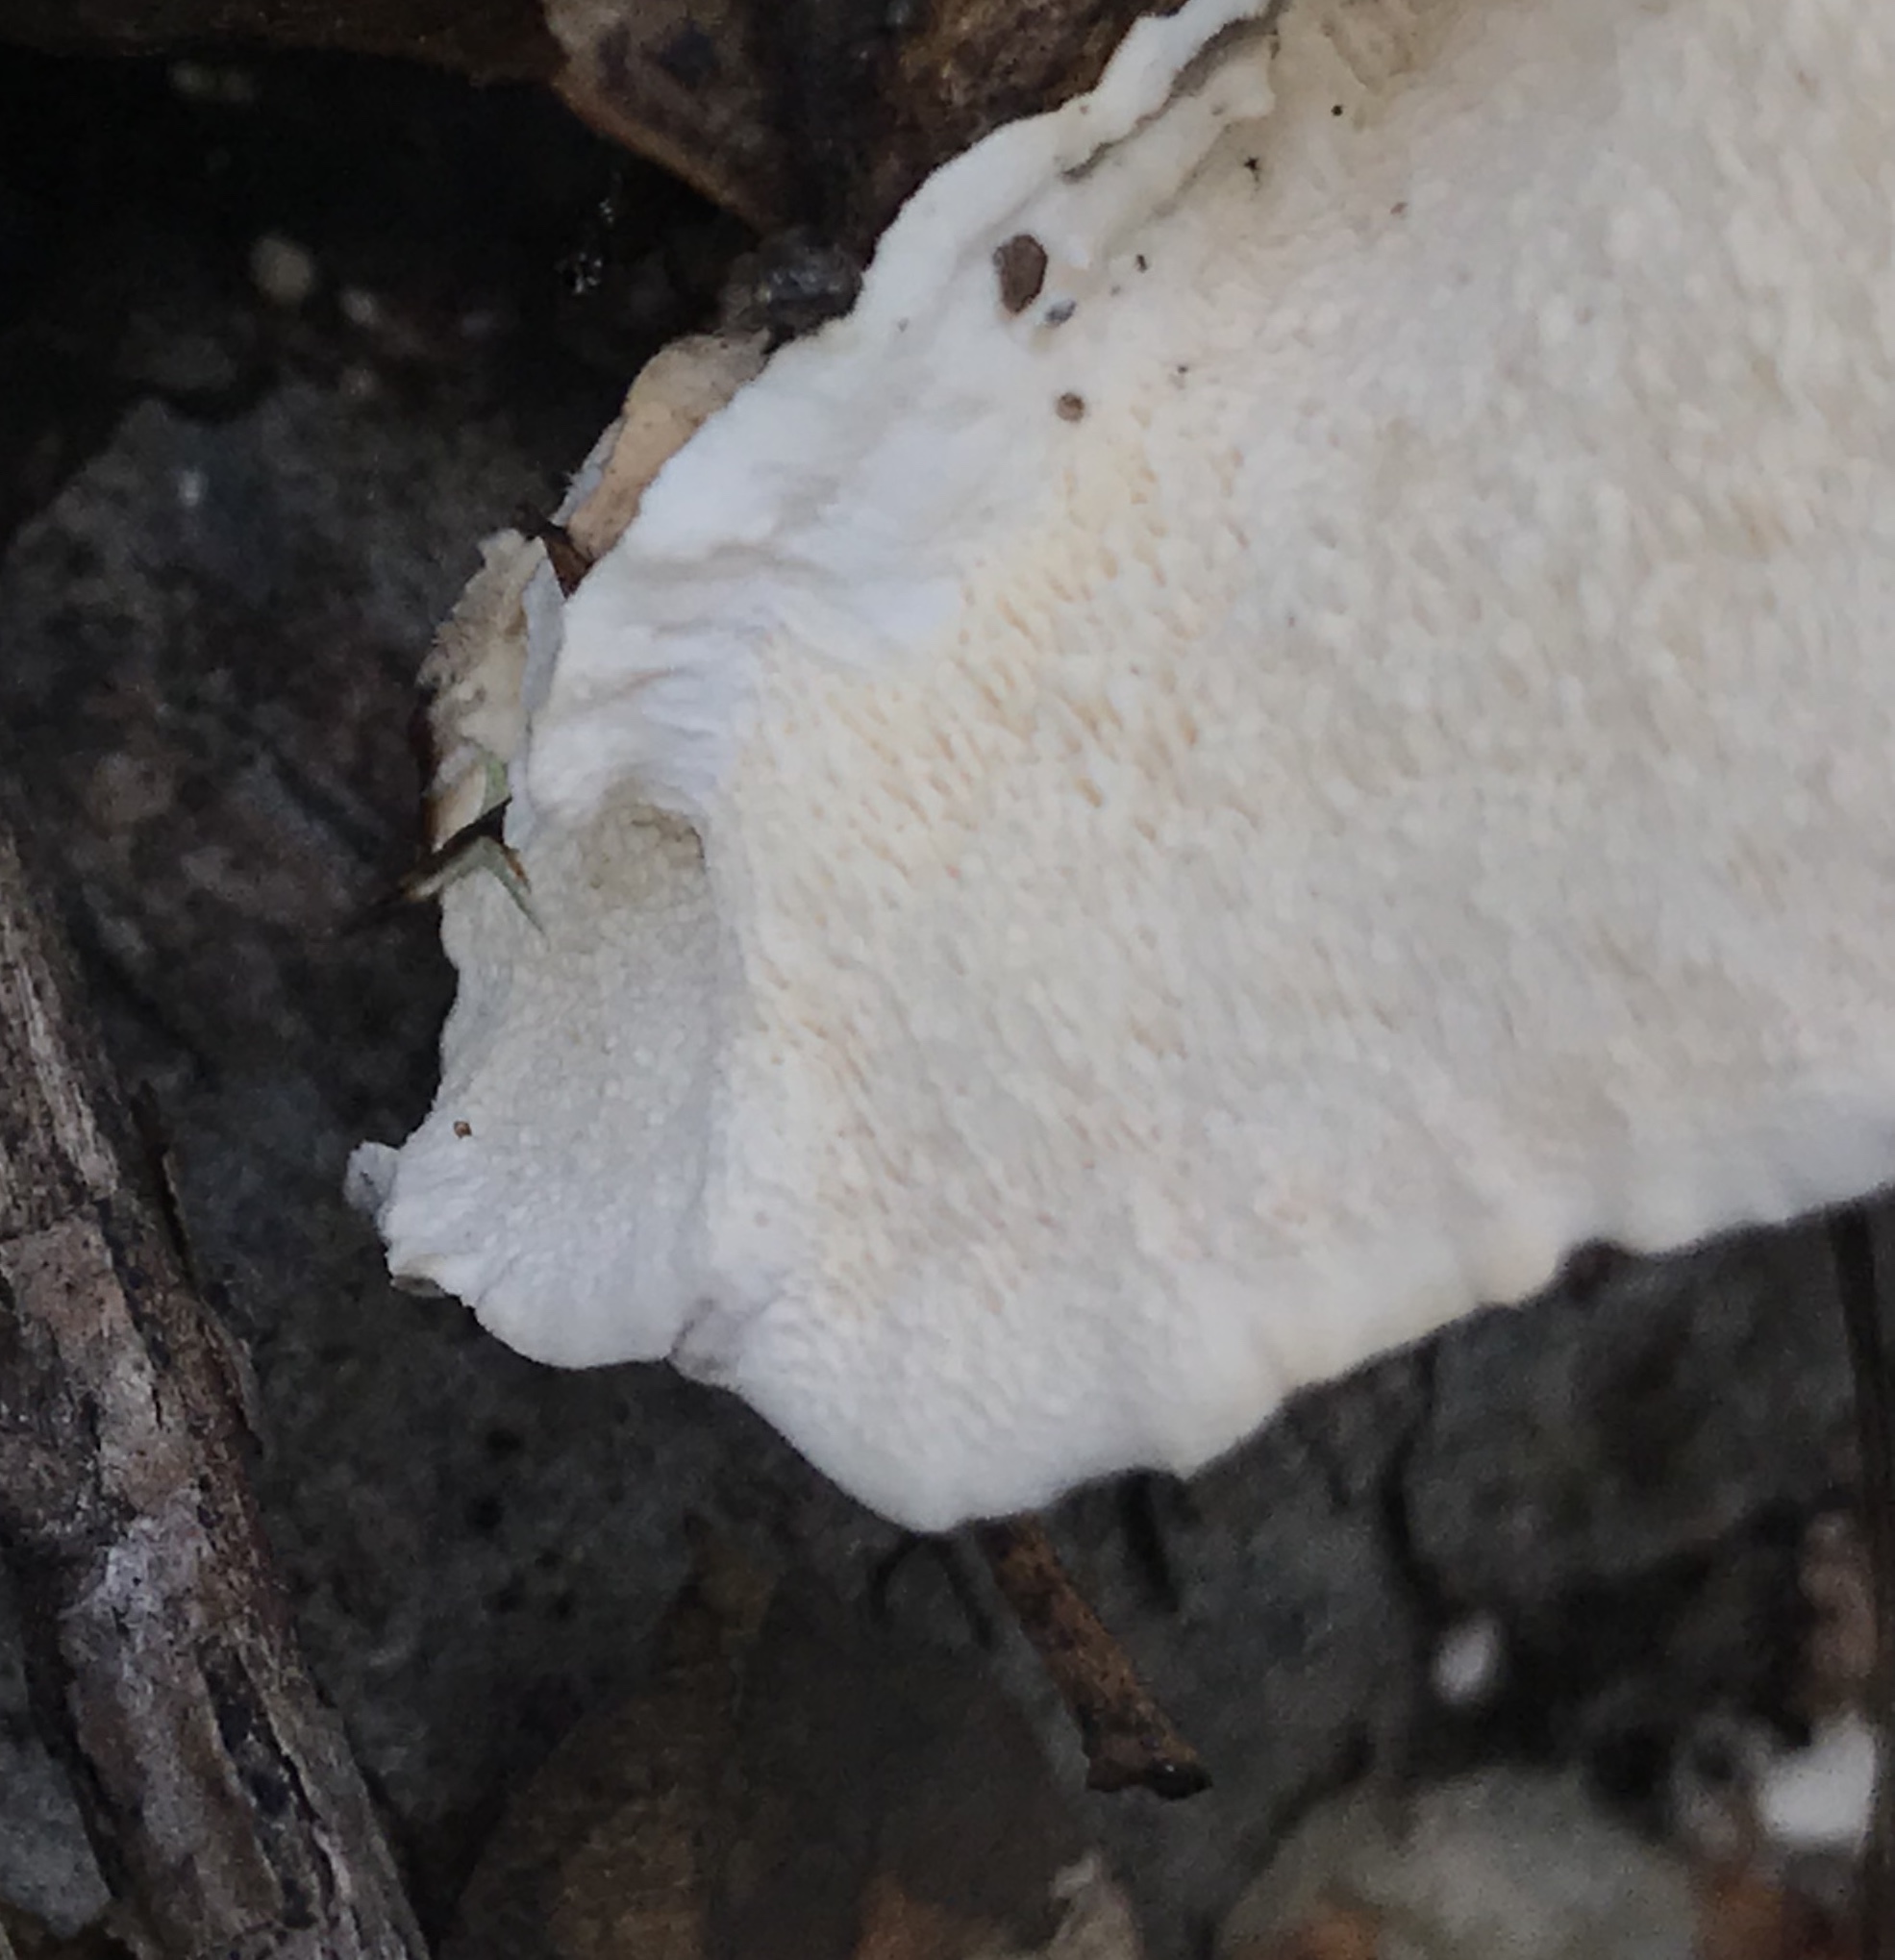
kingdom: Fungi
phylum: Basidiomycota
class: Agaricomycetes
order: Polyporales
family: Polyporaceae
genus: Trametes
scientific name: Trametes versicolor
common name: Turkeytail
